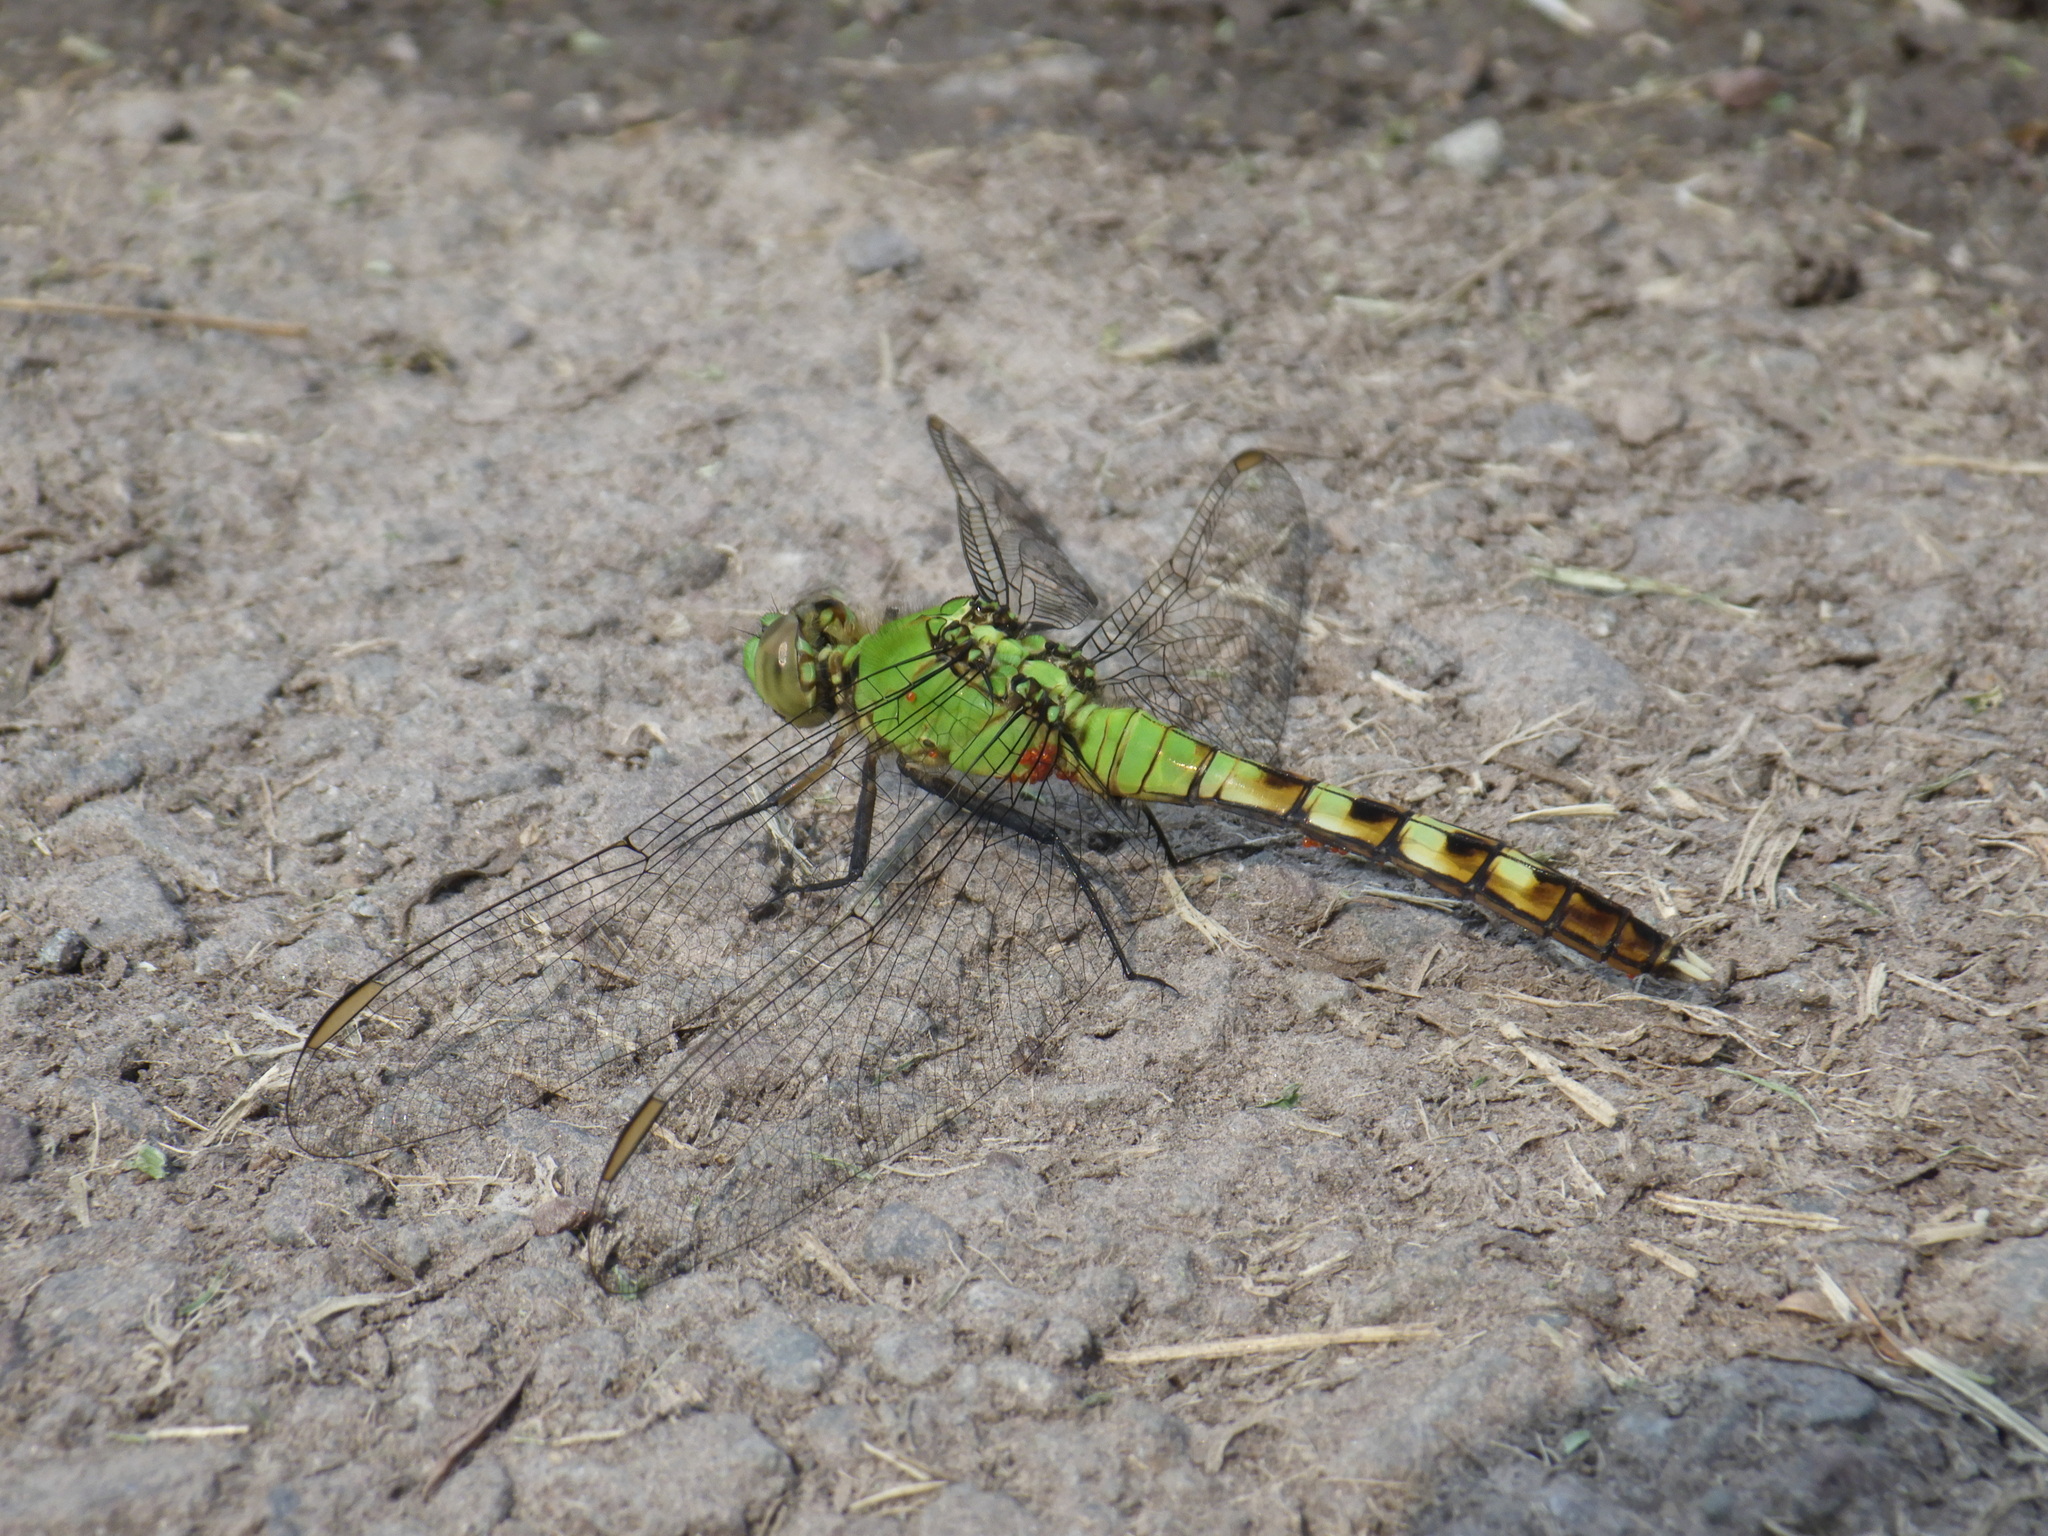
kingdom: Animalia
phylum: Arthropoda
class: Insecta
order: Odonata
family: Libellulidae
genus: Erythemis
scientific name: Erythemis simplicicollis
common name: Eastern pondhawk
